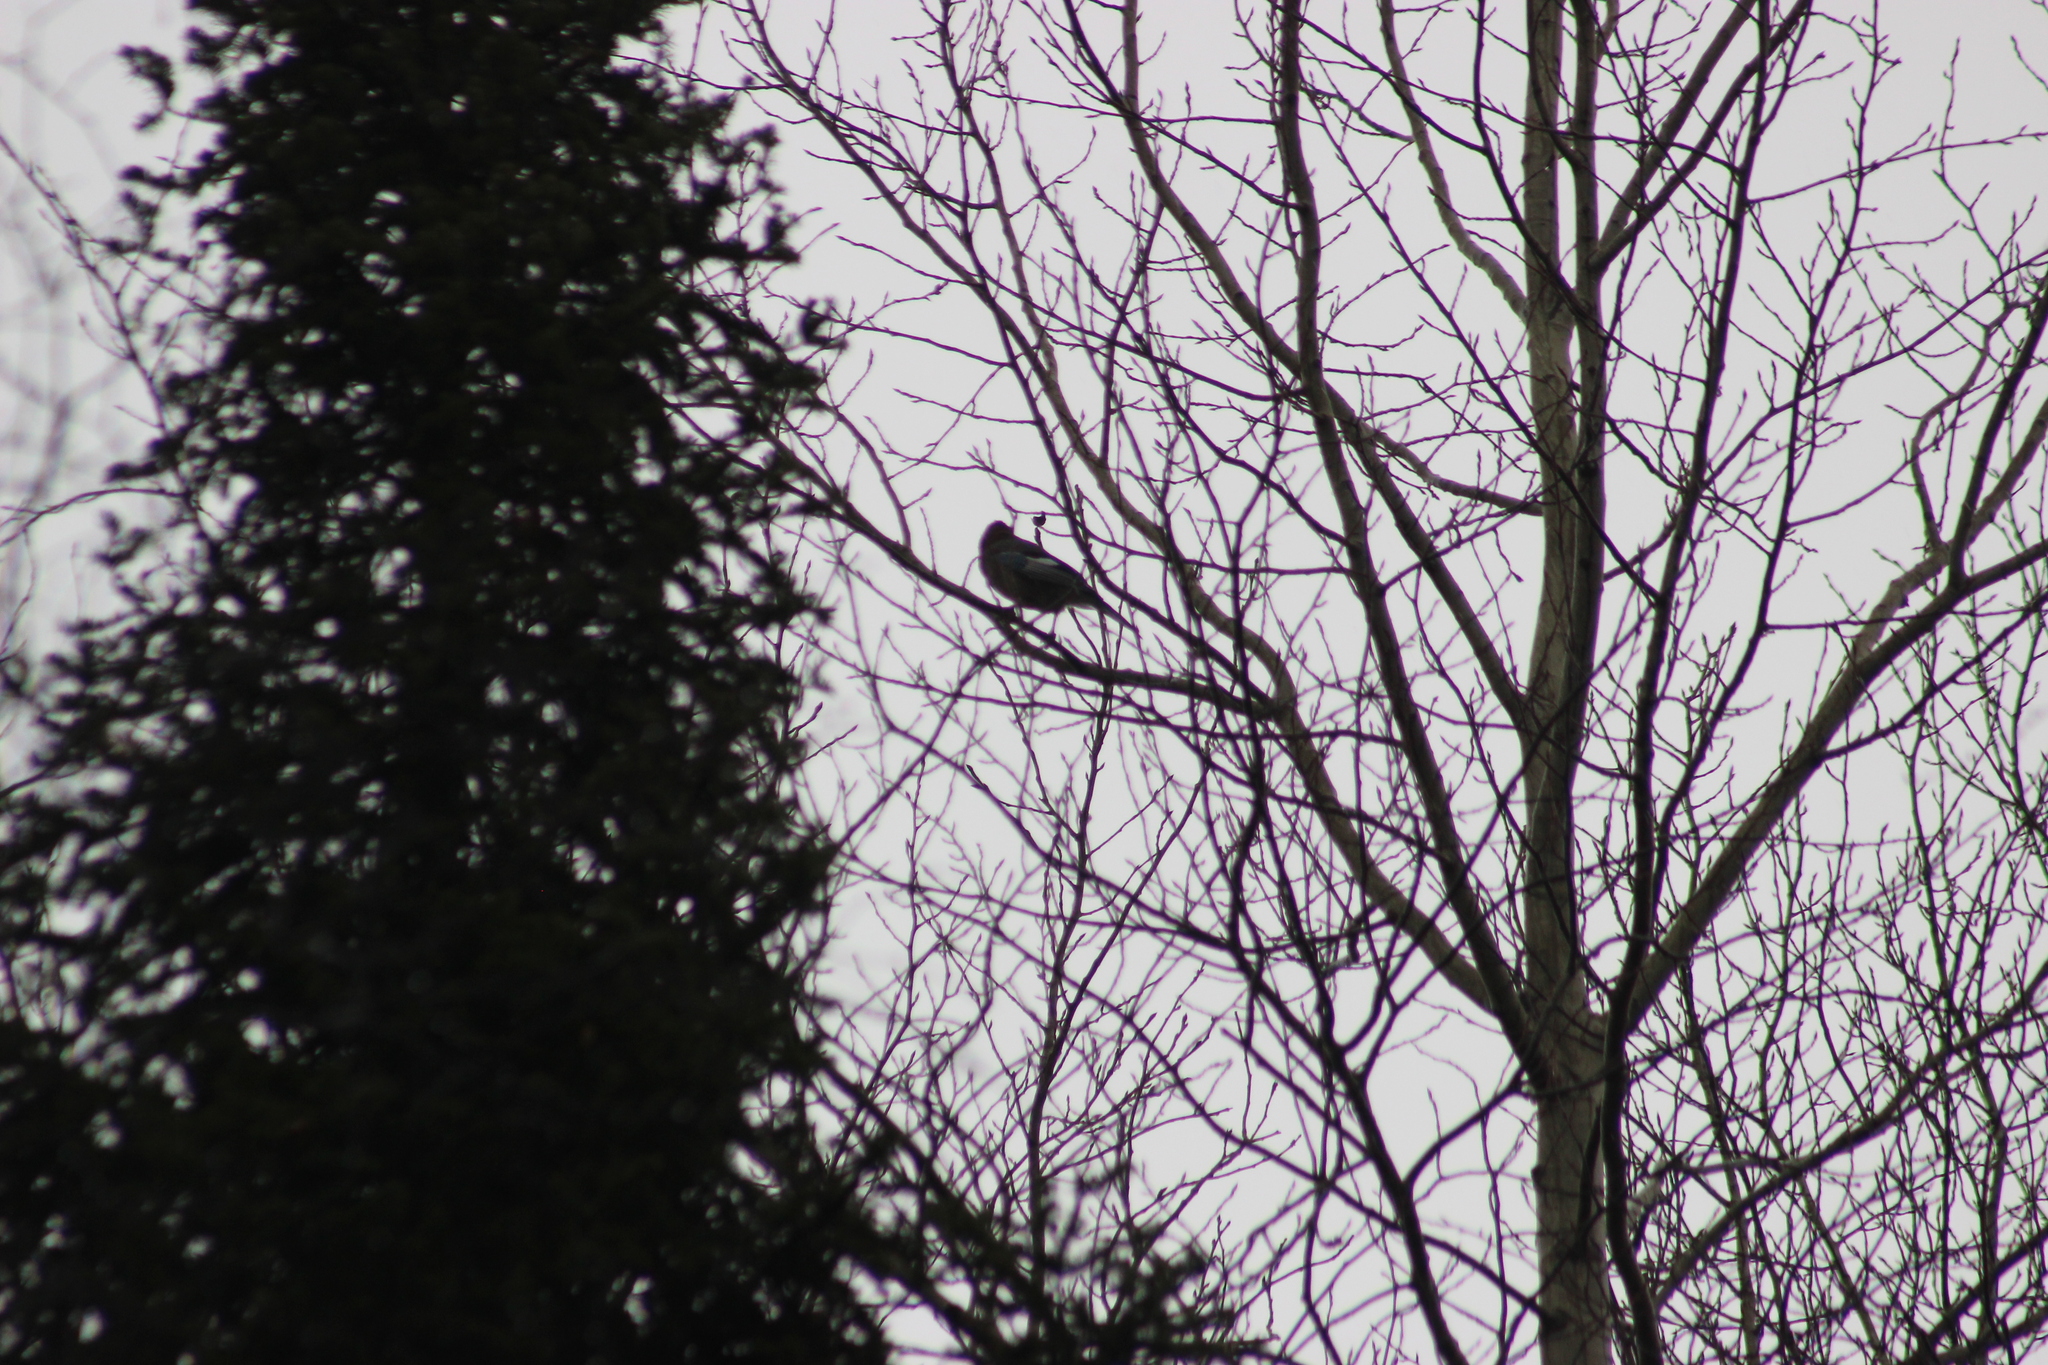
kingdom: Animalia
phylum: Chordata
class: Aves
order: Passeriformes
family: Corvidae
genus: Garrulus
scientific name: Garrulus glandarius
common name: Eurasian jay
